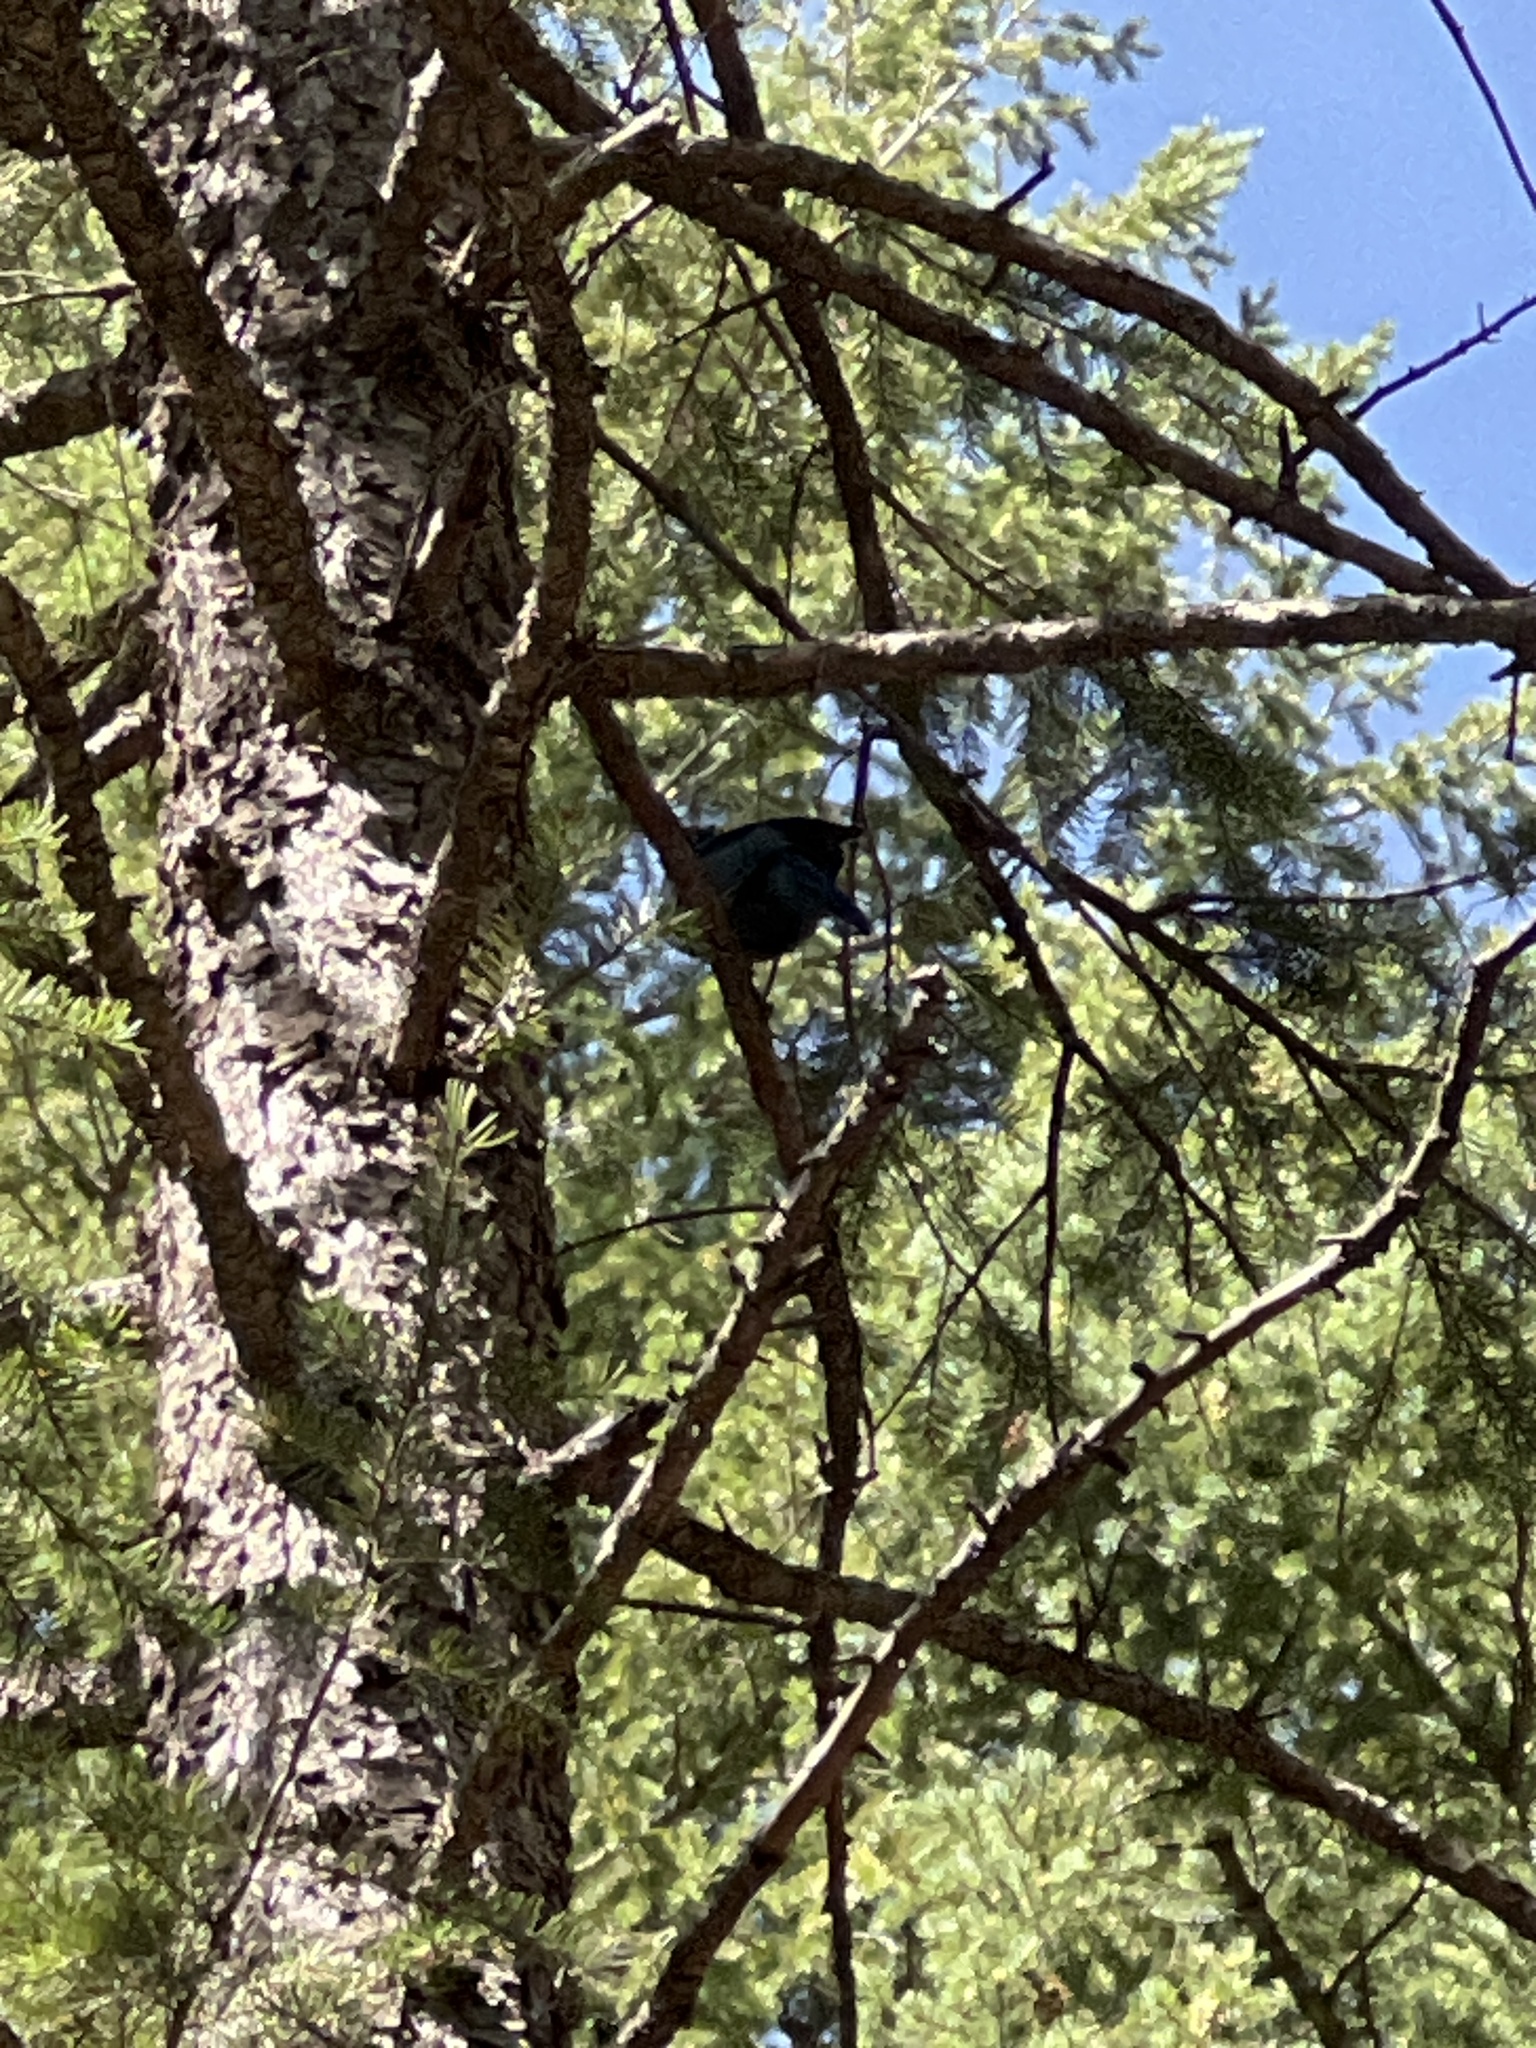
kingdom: Animalia
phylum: Chordata
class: Aves
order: Passeriformes
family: Corvidae
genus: Cyanocitta
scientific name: Cyanocitta stelleri
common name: Steller's jay
